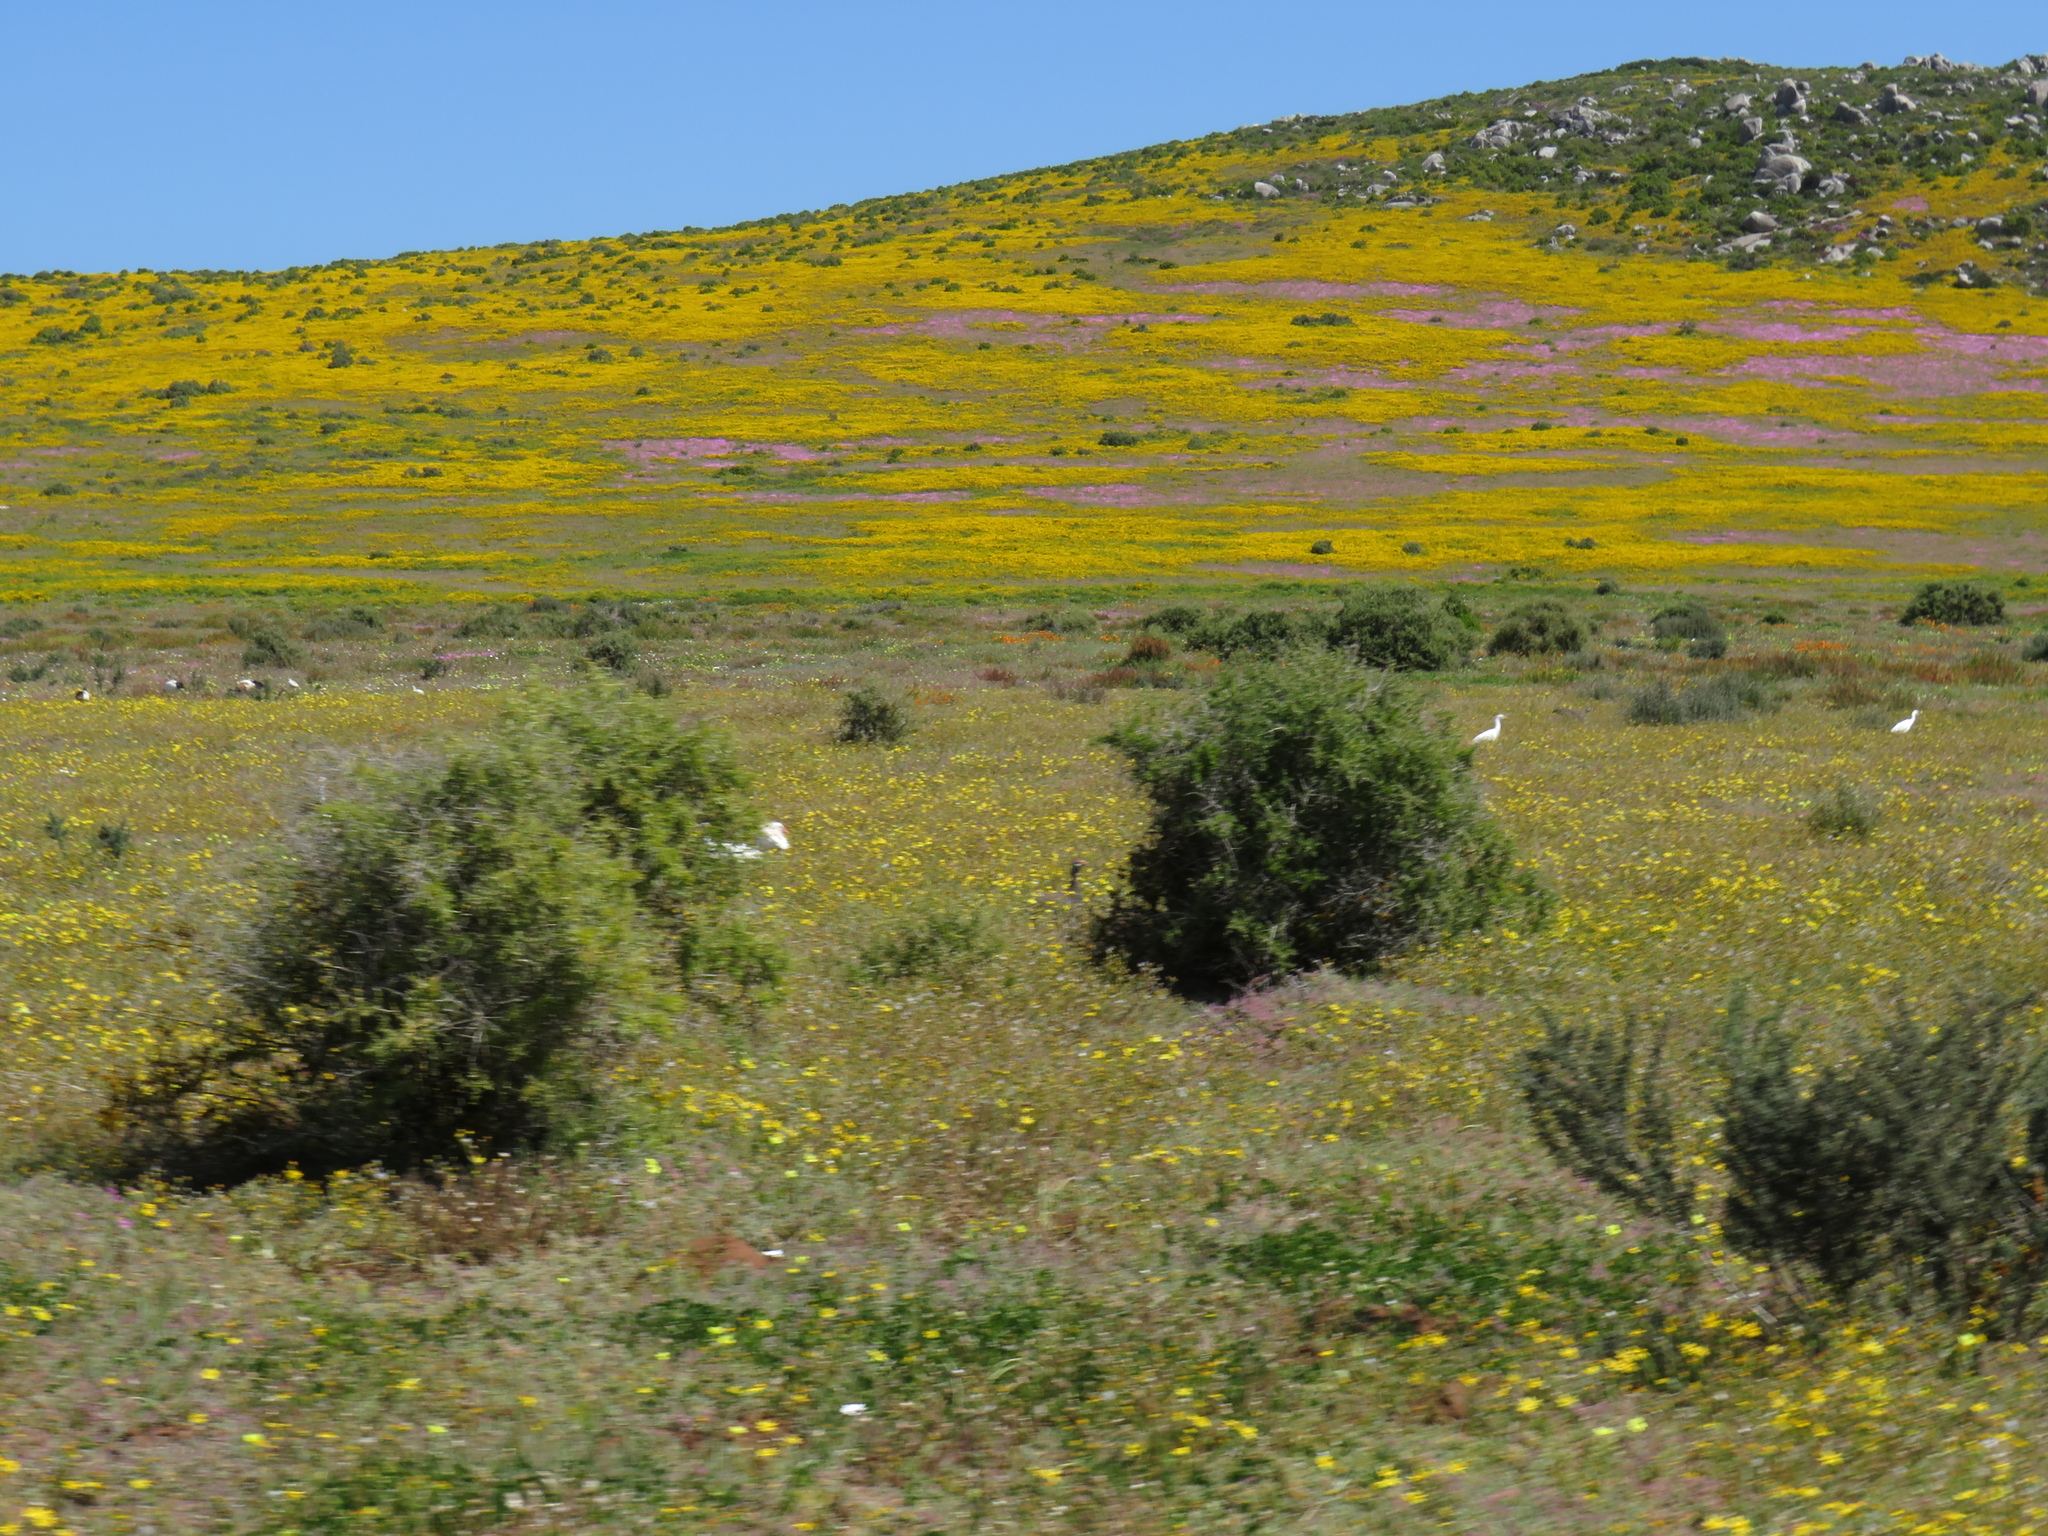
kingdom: Animalia
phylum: Chordata
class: Aves
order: Pelecaniformes
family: Threskiornithidae
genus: Threskiornis
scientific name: Threskiornis aethiopicus
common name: Sacred ibis
